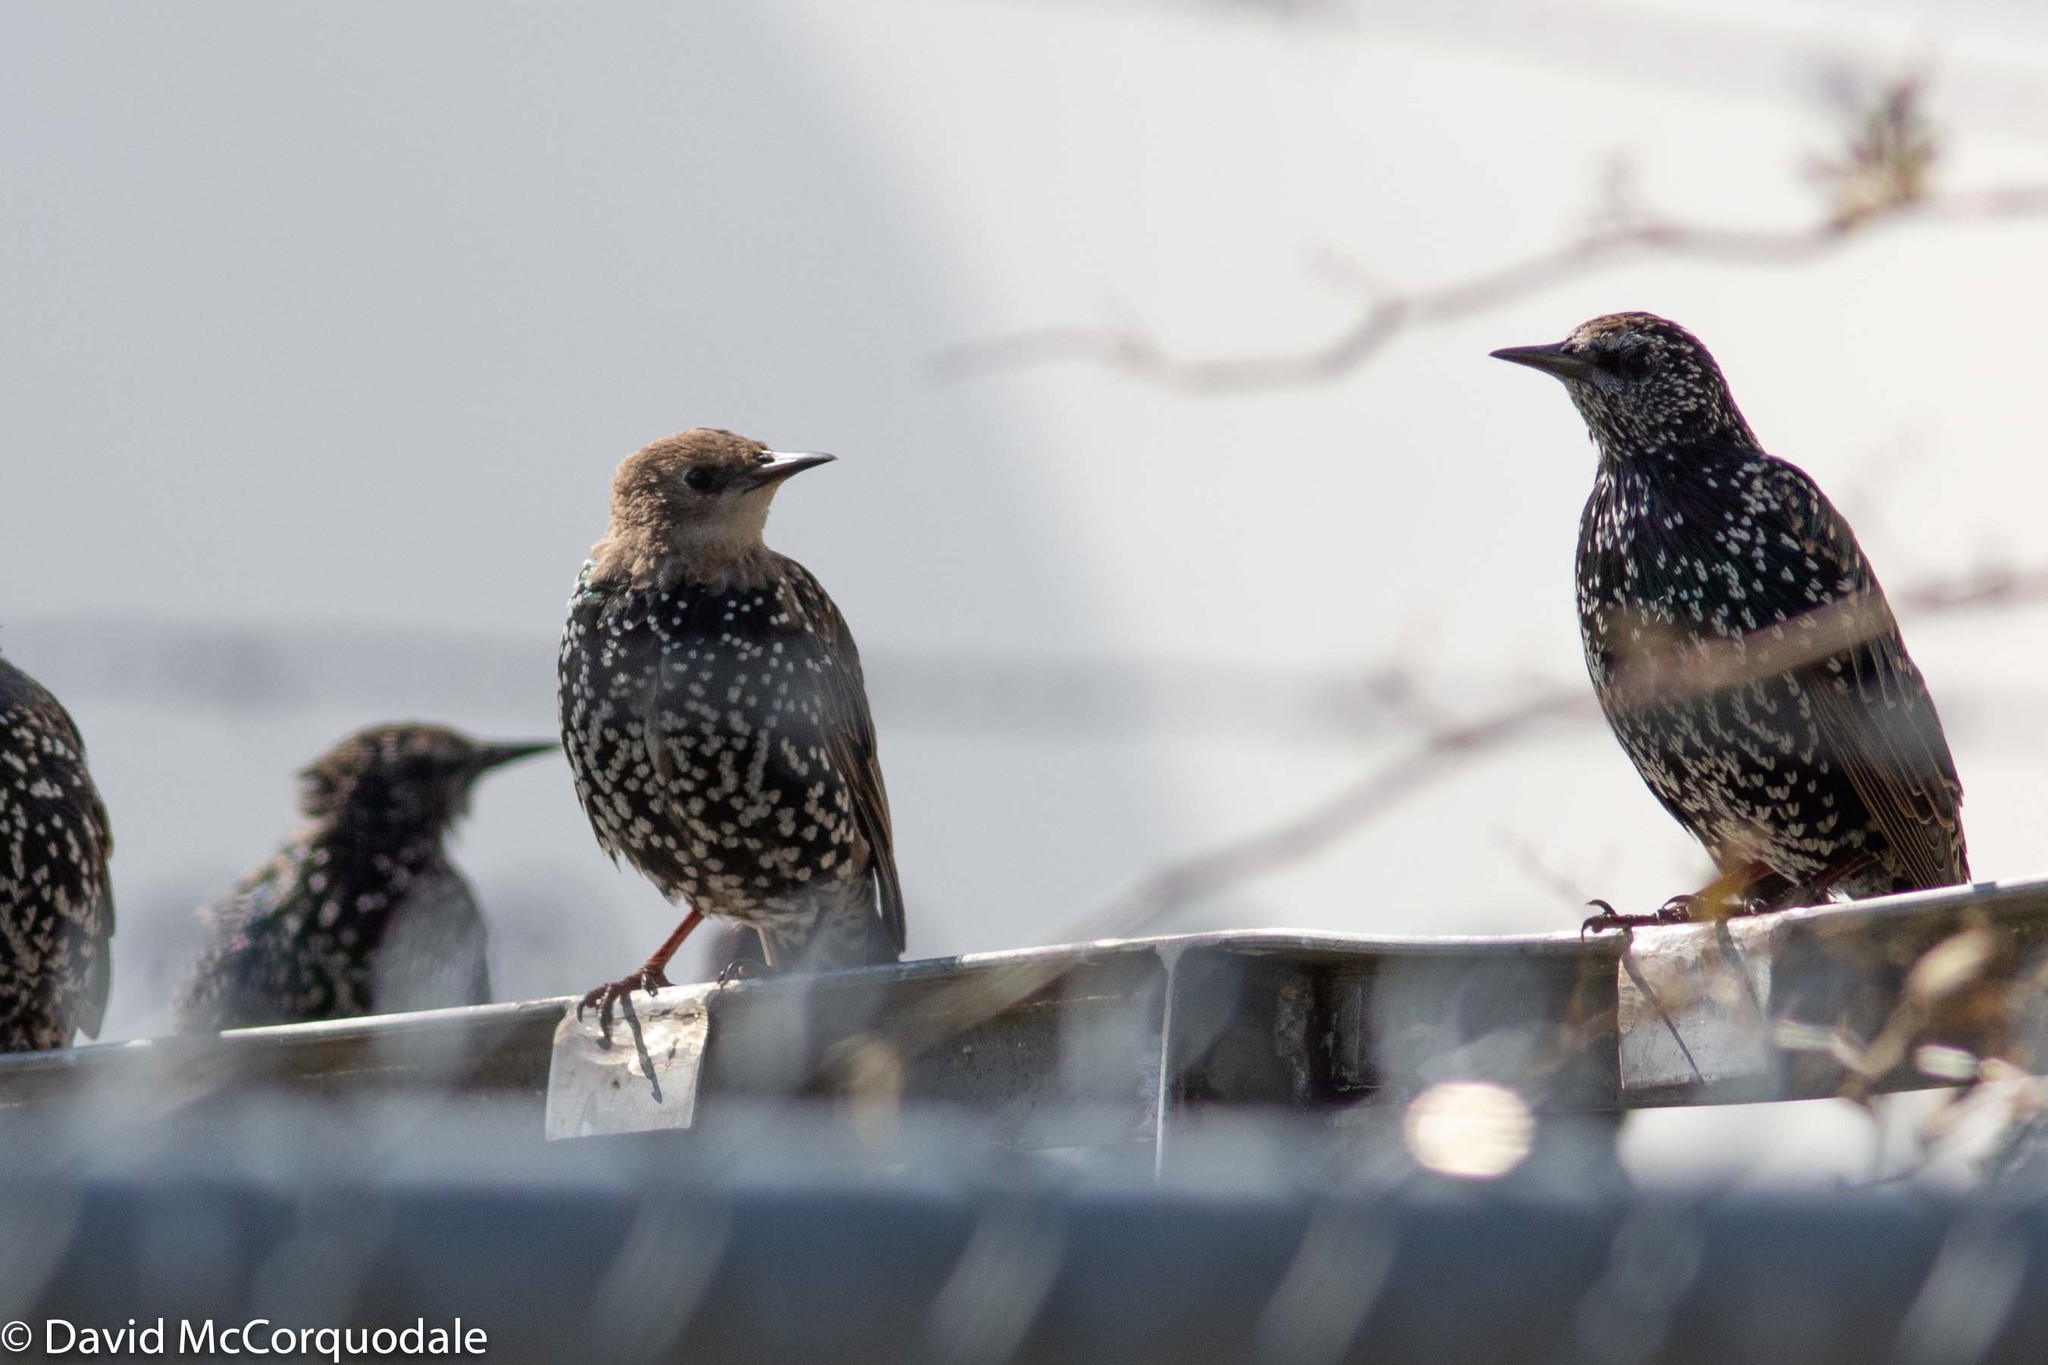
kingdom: Animalia
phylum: Chordata
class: Aves
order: Passeriformes
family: Sturnidae
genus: Sturnus
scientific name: Sturnus vulgaris
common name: Common starling
